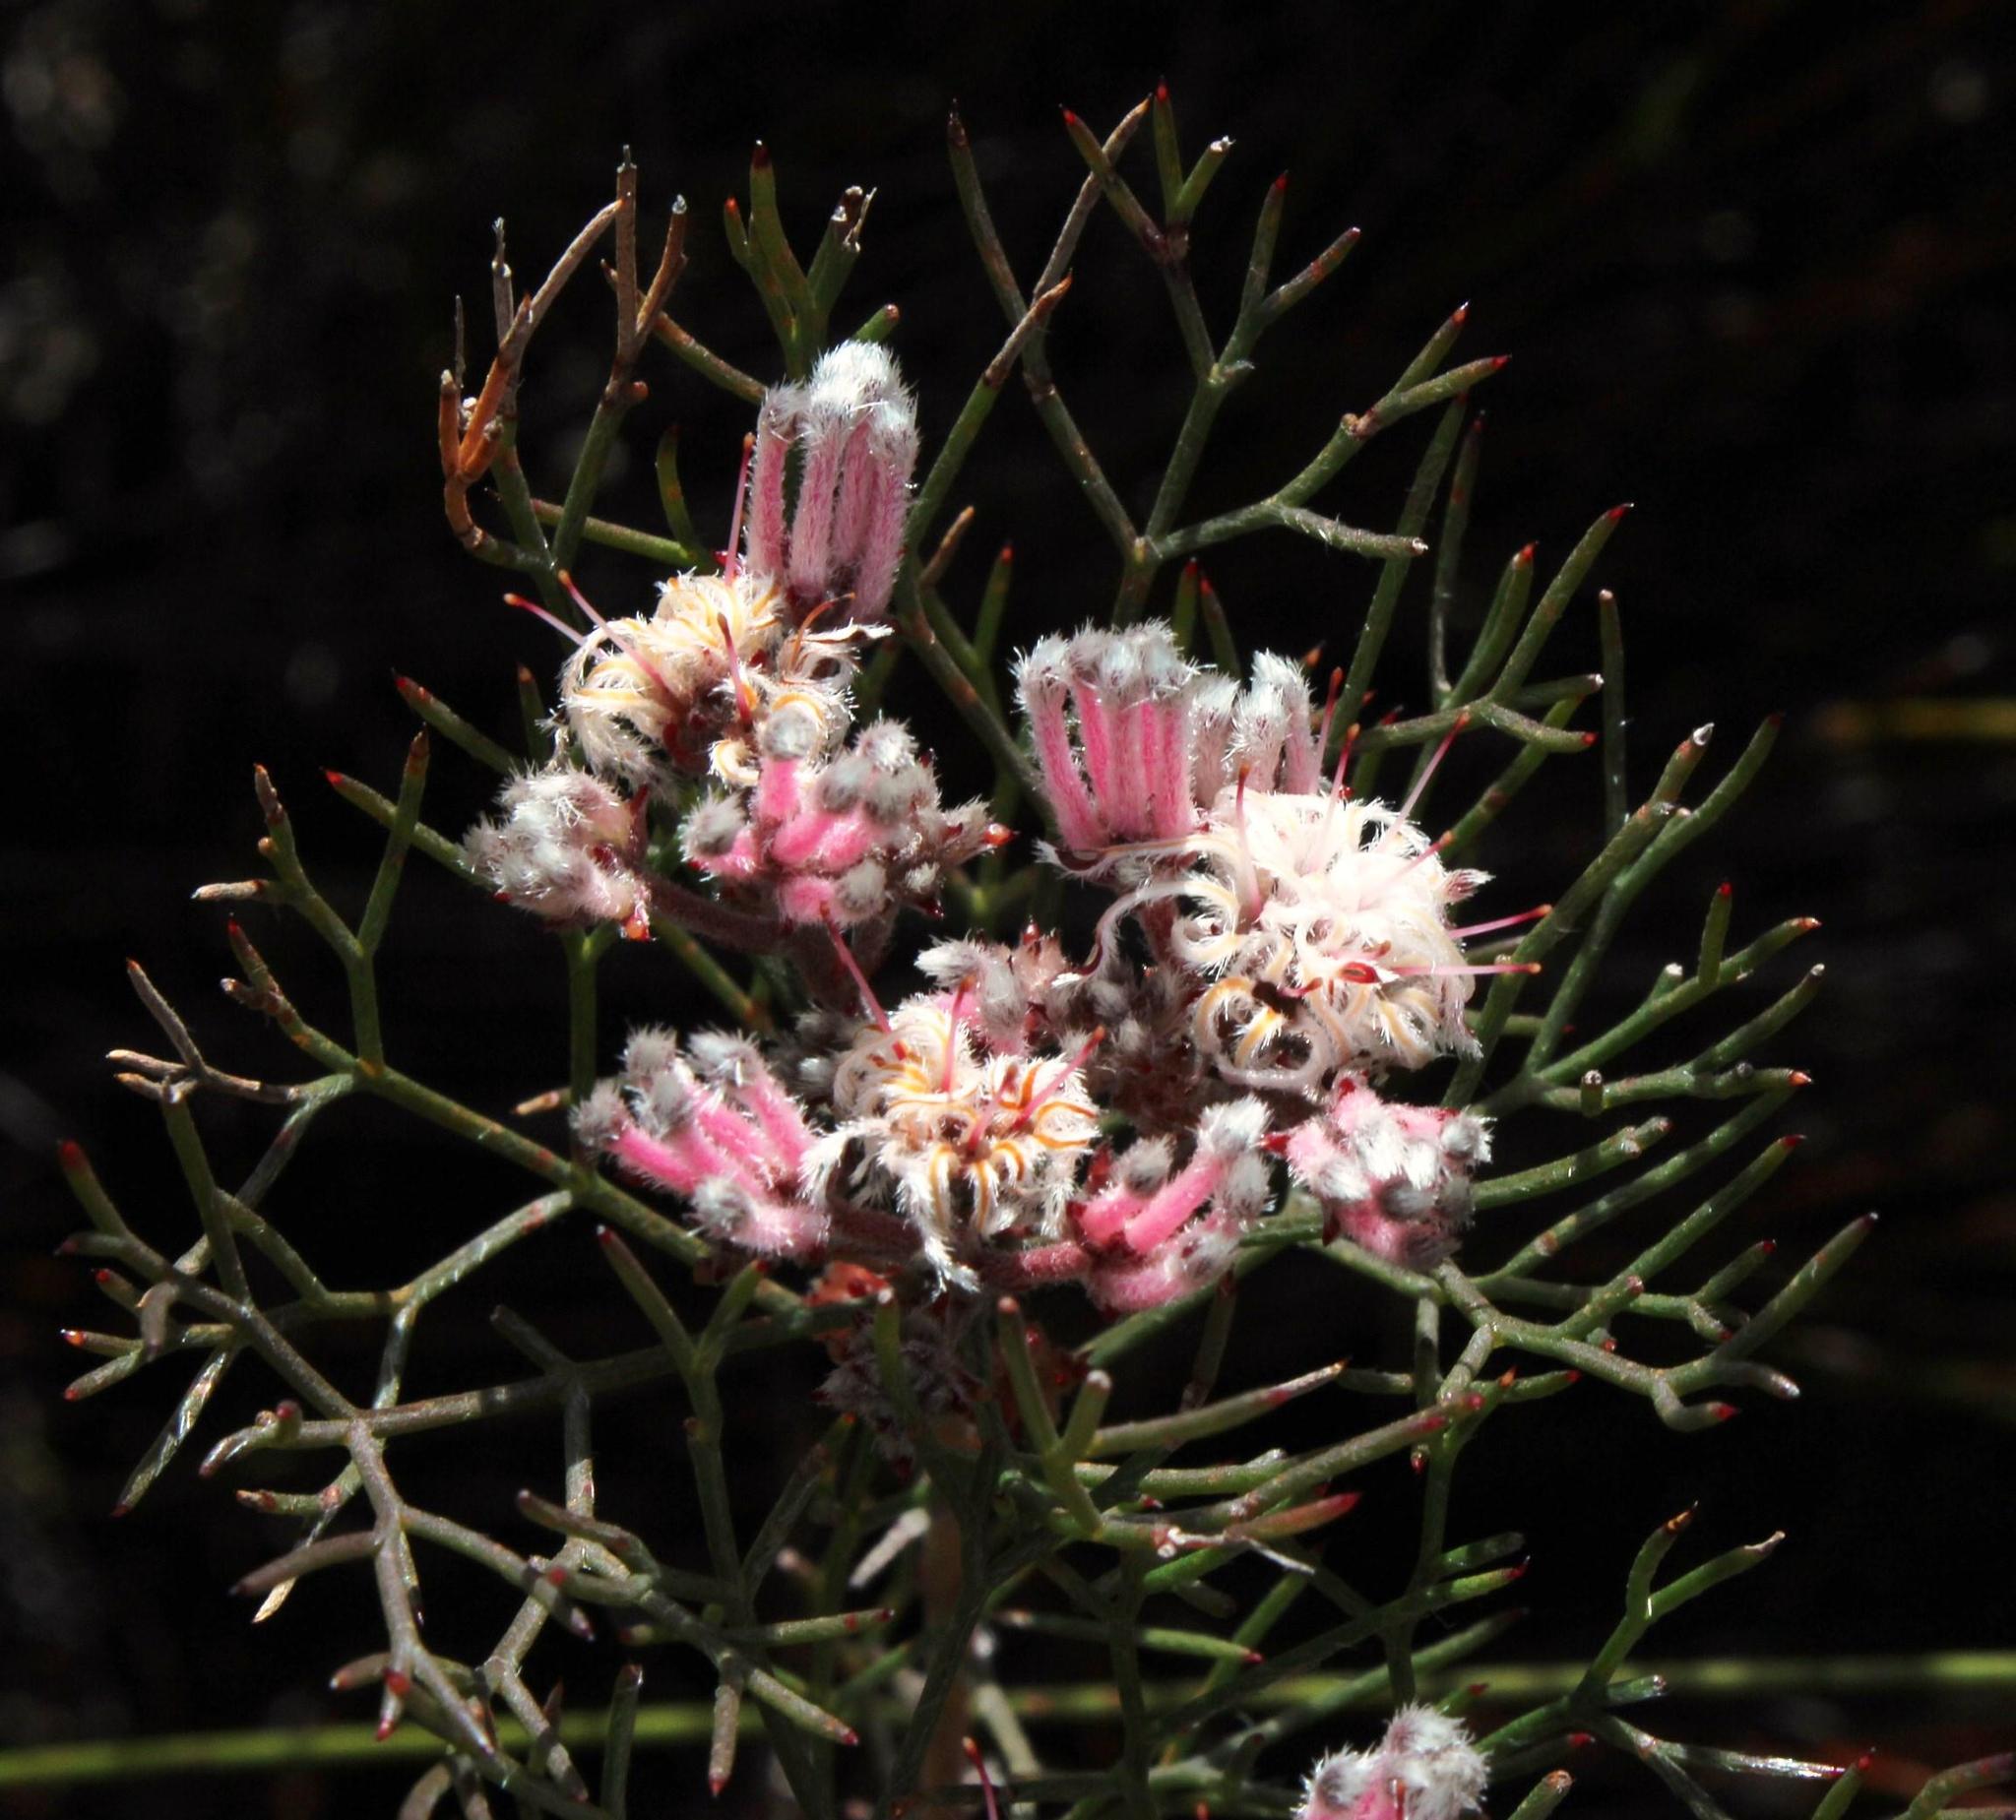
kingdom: Plantae
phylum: Tracheophyta
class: Magnoliopsida
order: Proteales
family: Proteaceae
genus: Serruria
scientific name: Serruria fasciflora
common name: Common pin spiderhead
